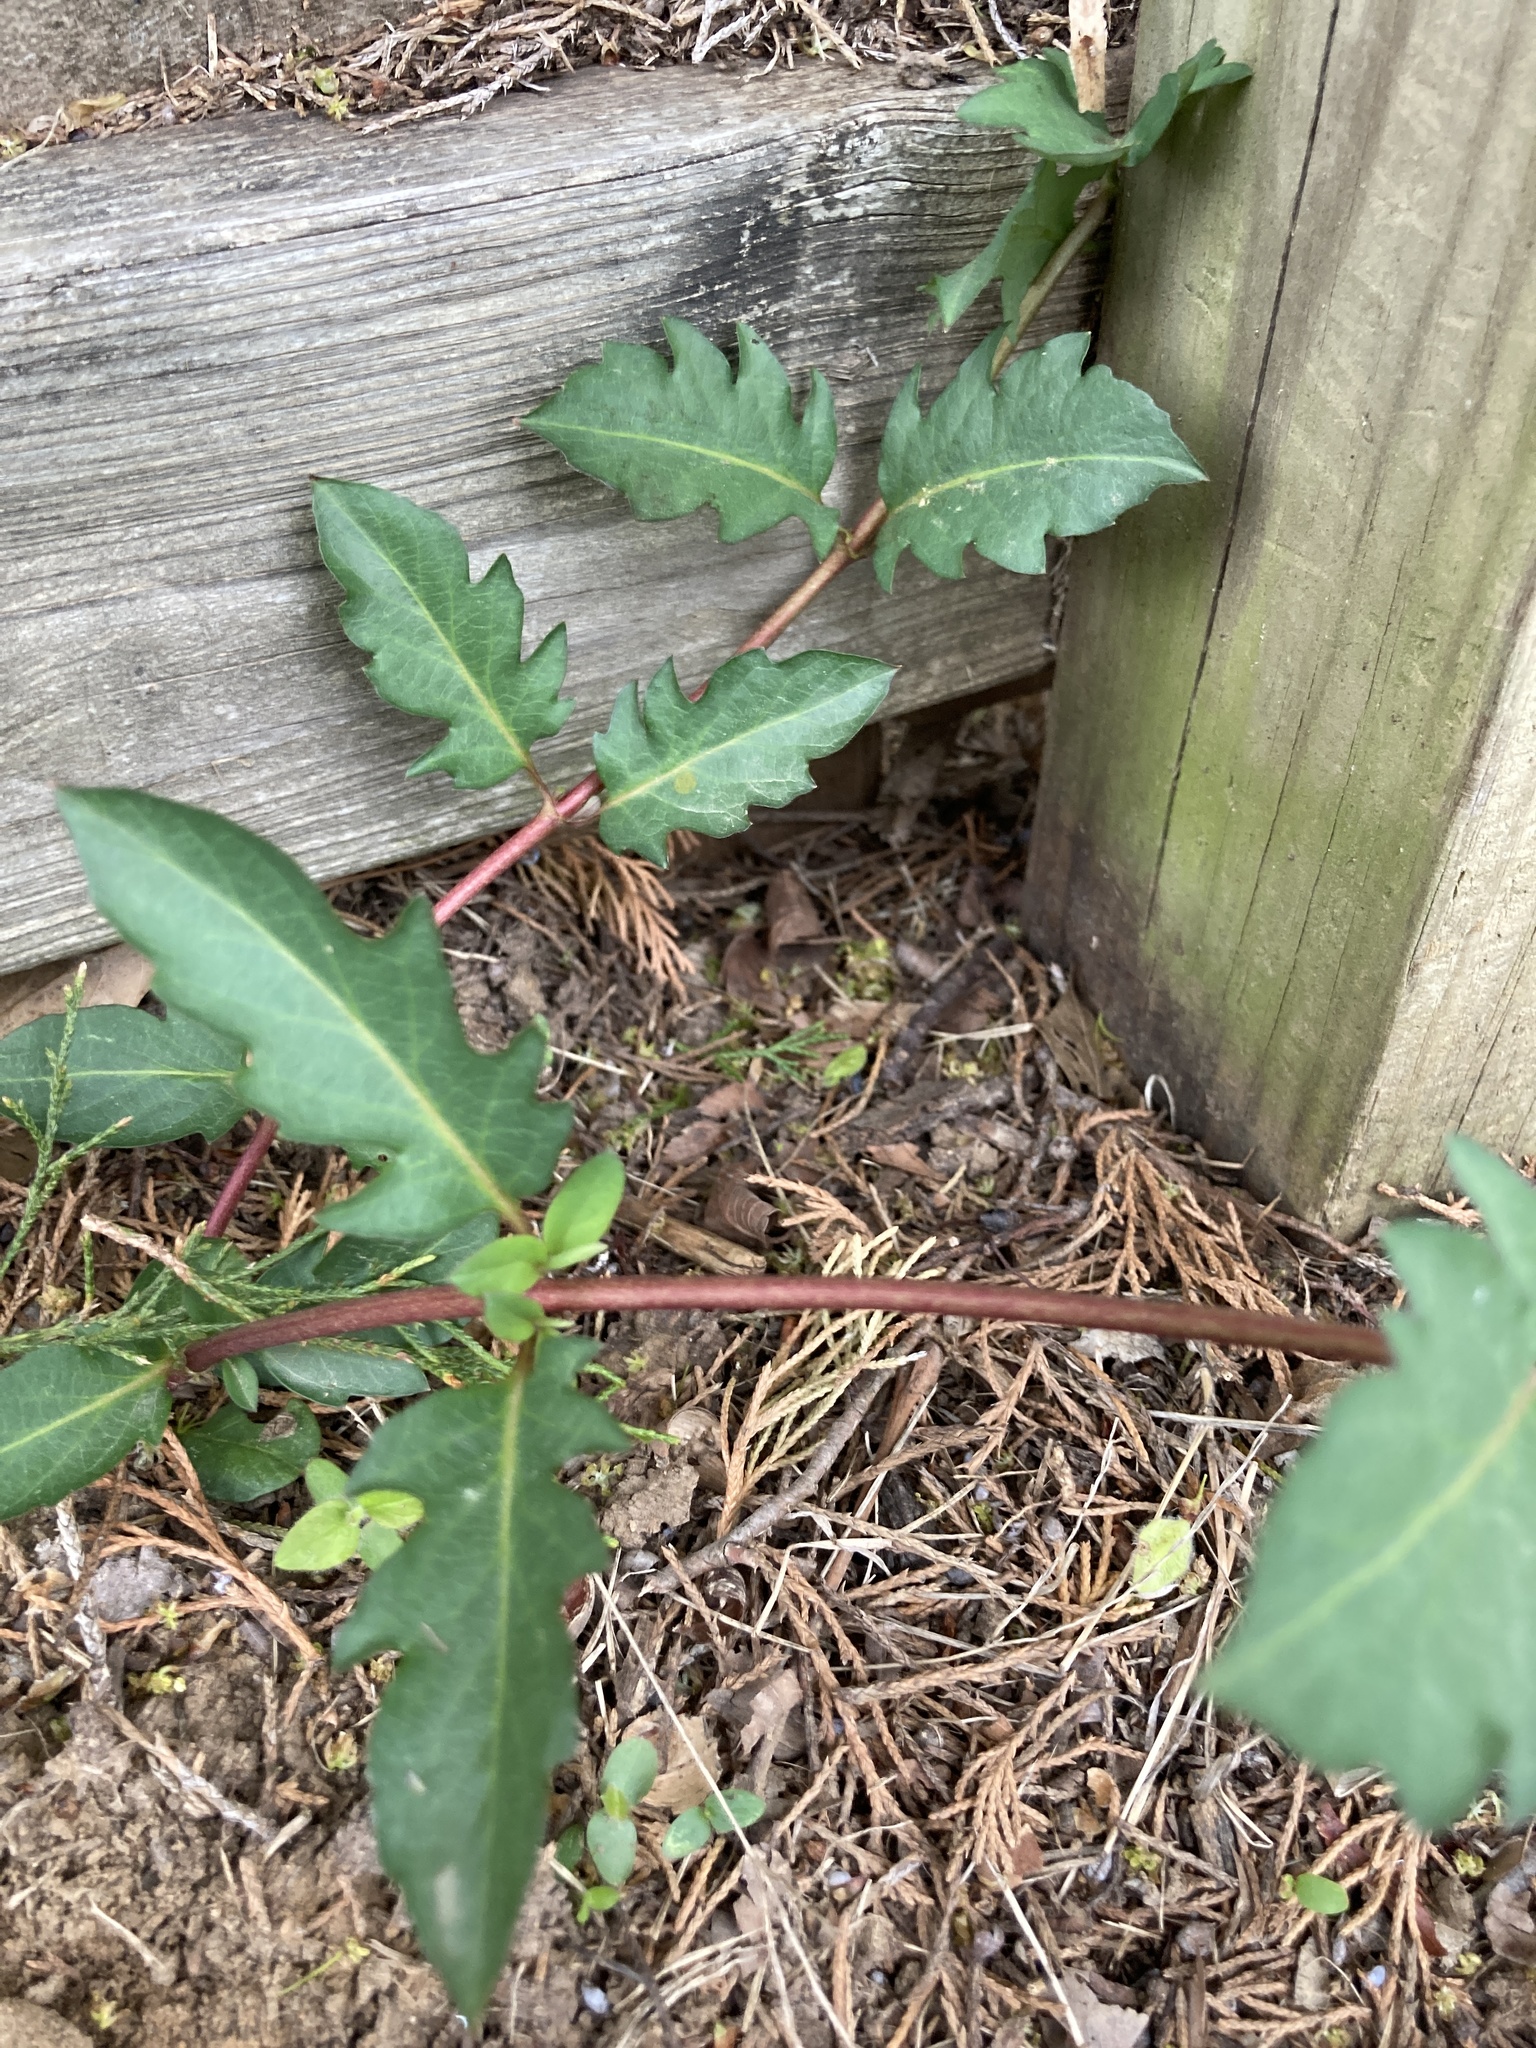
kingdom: Plantae
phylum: Tracheophyta
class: Magnoliopsida
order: Dipsacales
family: Caprifoliaceae
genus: Lonicera
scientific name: Lonicera japonica
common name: Japanese honeysuckle
